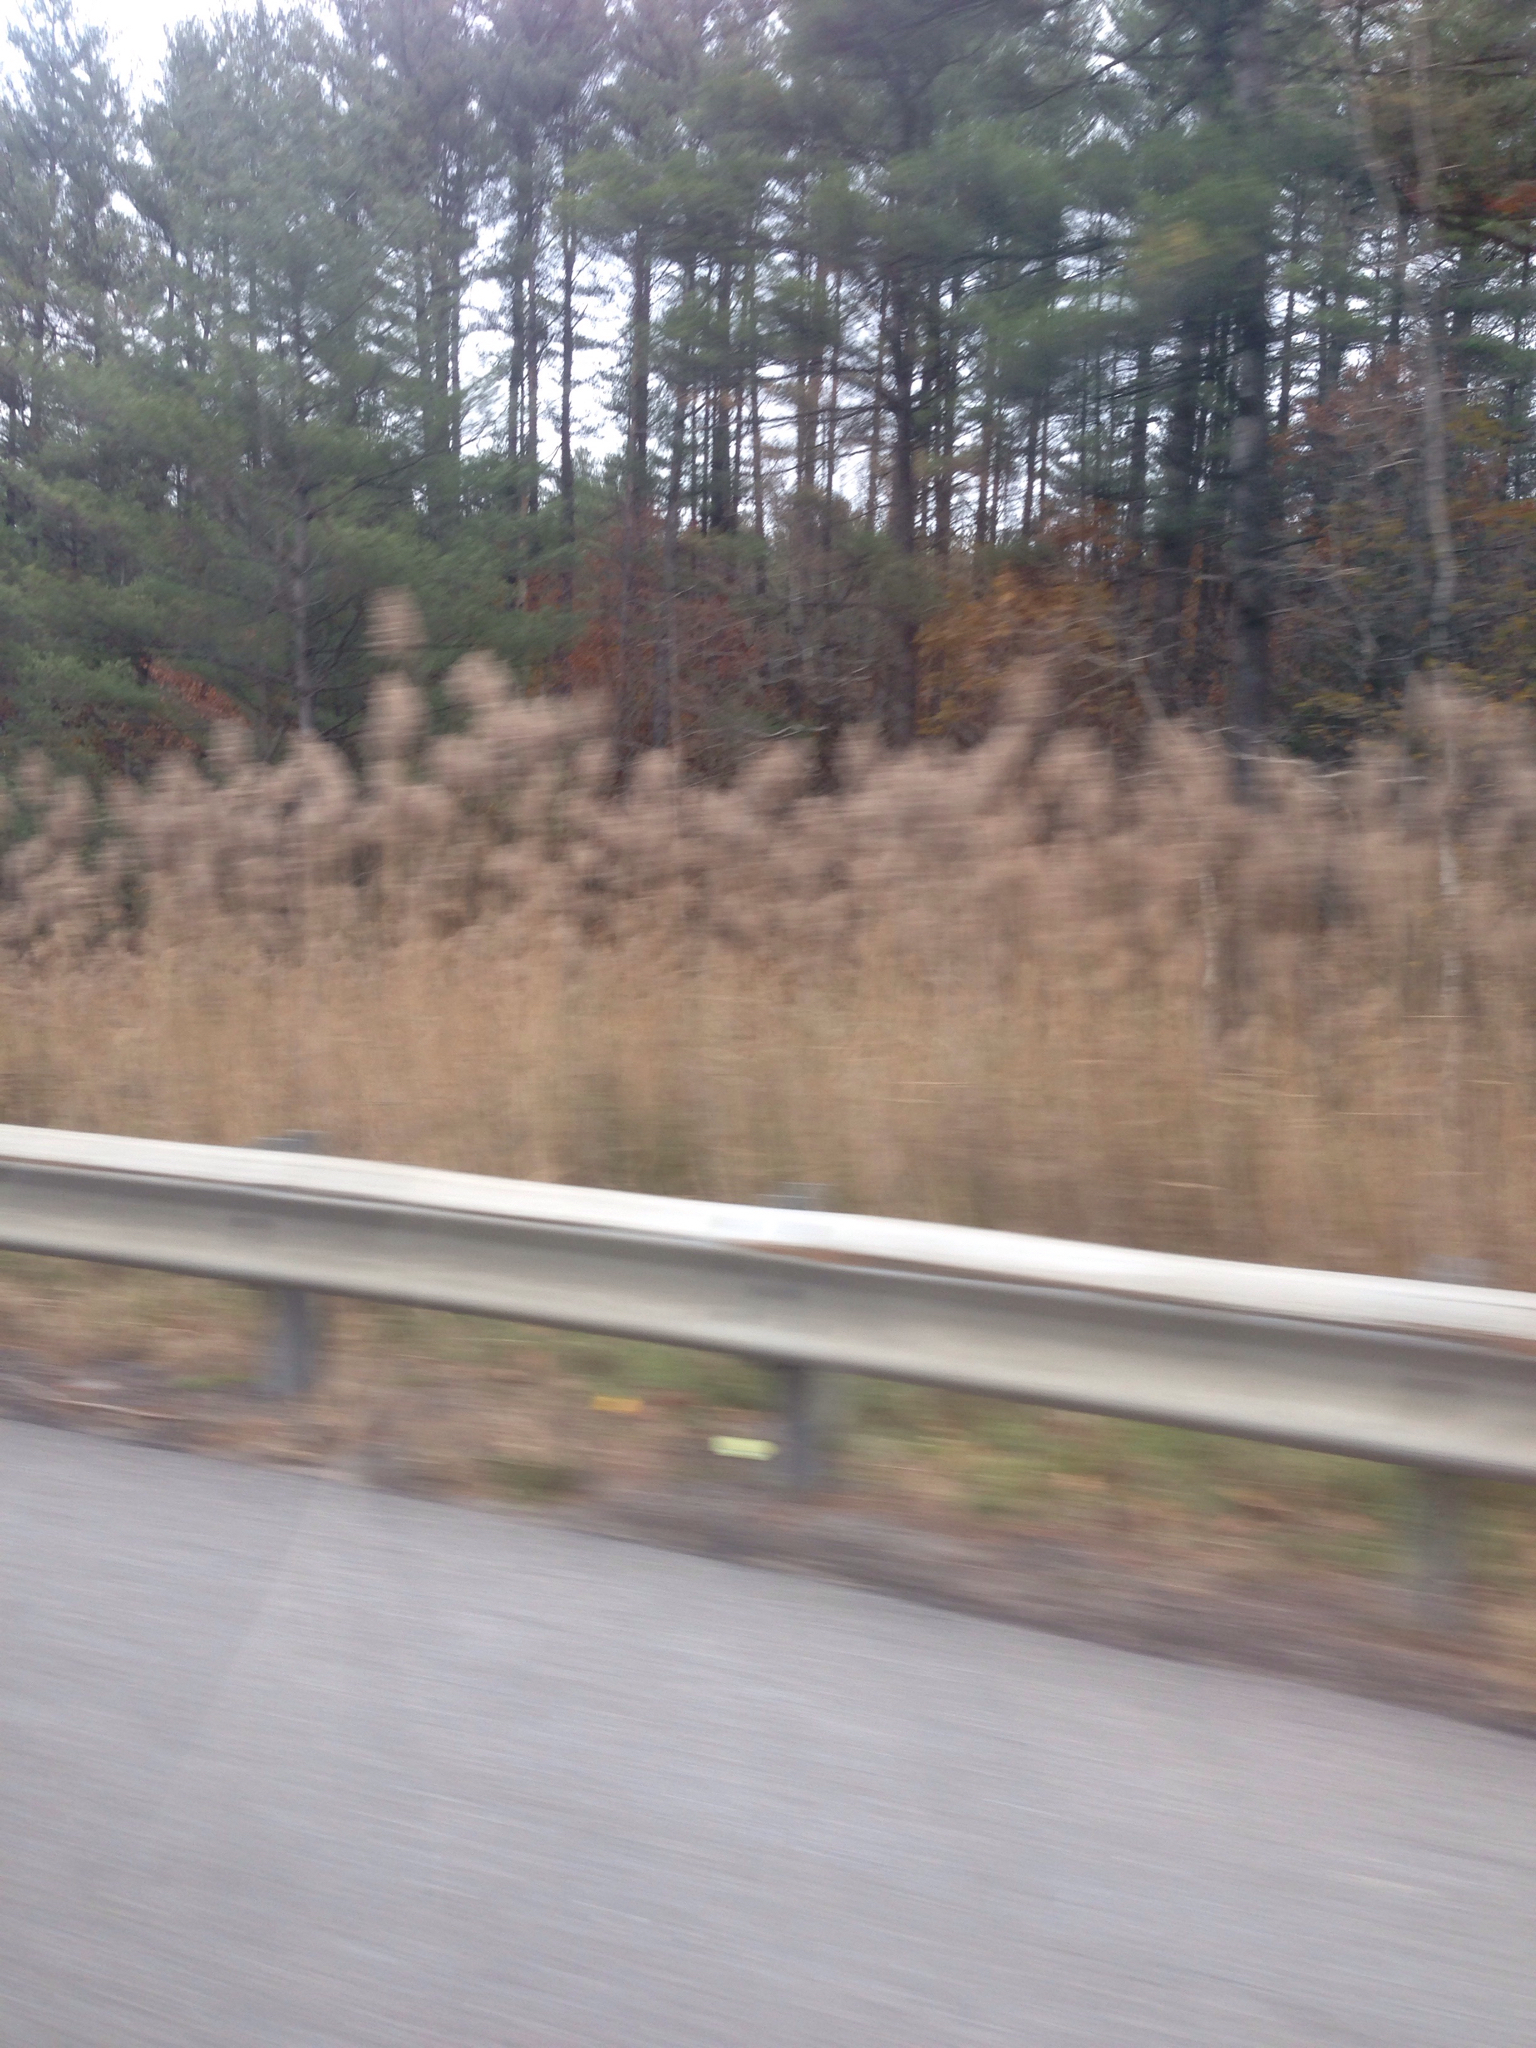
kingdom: Plantae
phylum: Tracheophyta
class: Liliopsida
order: Poales
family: Poaceae
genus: Phragmites
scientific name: Phragmites australis
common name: Common reed
